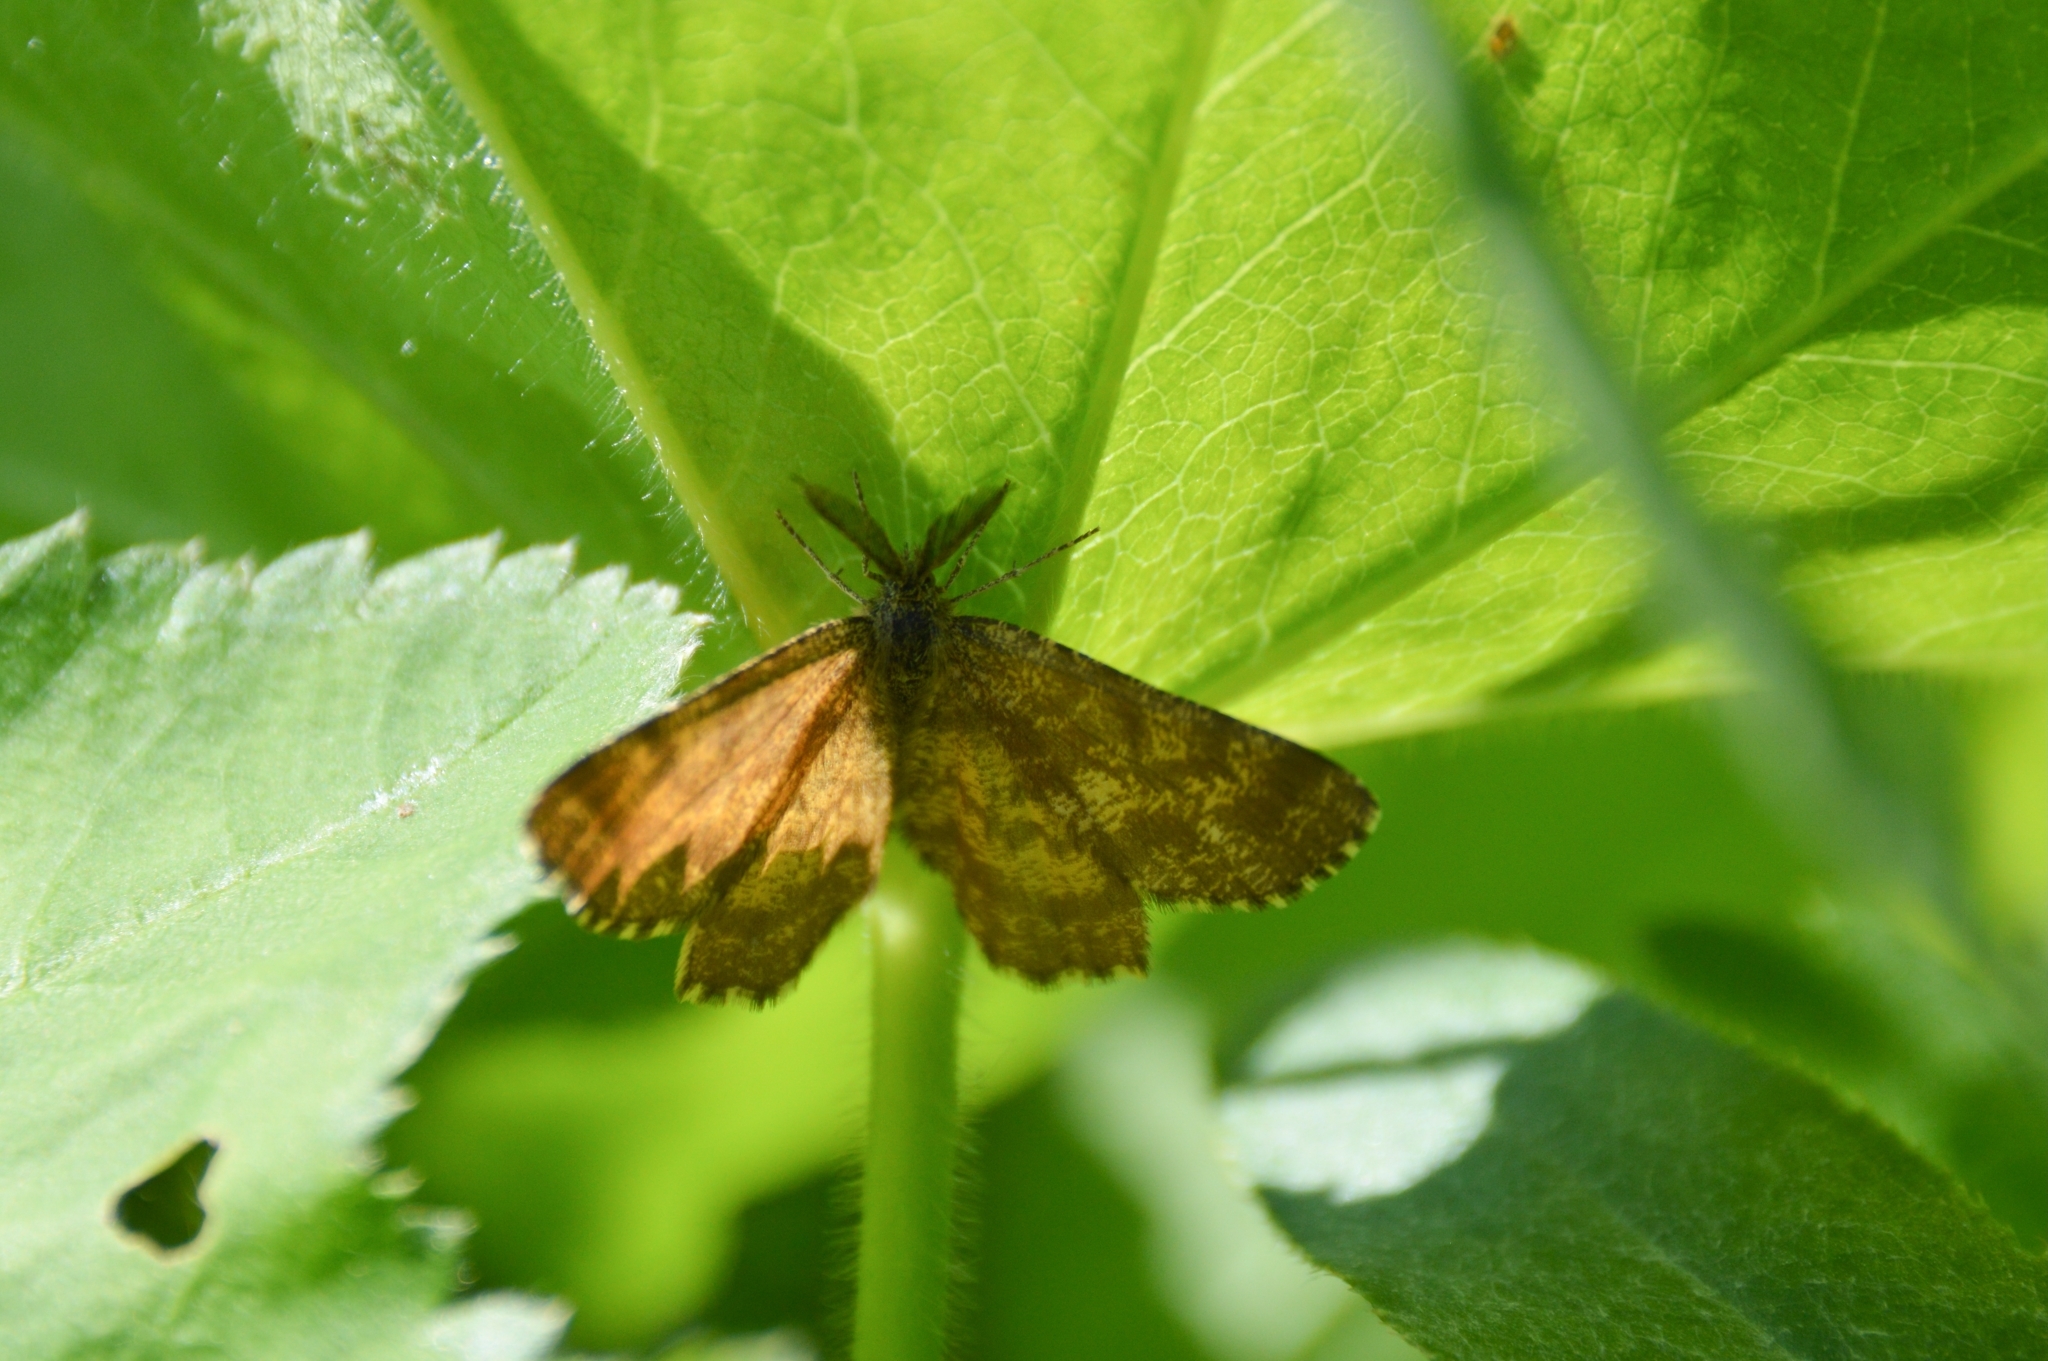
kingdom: Animalia
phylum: Arthropoda
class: Insecta
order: Lepidoptera
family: Geometridae
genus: Ematurga
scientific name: Ematurga atomaria
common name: Common heath
